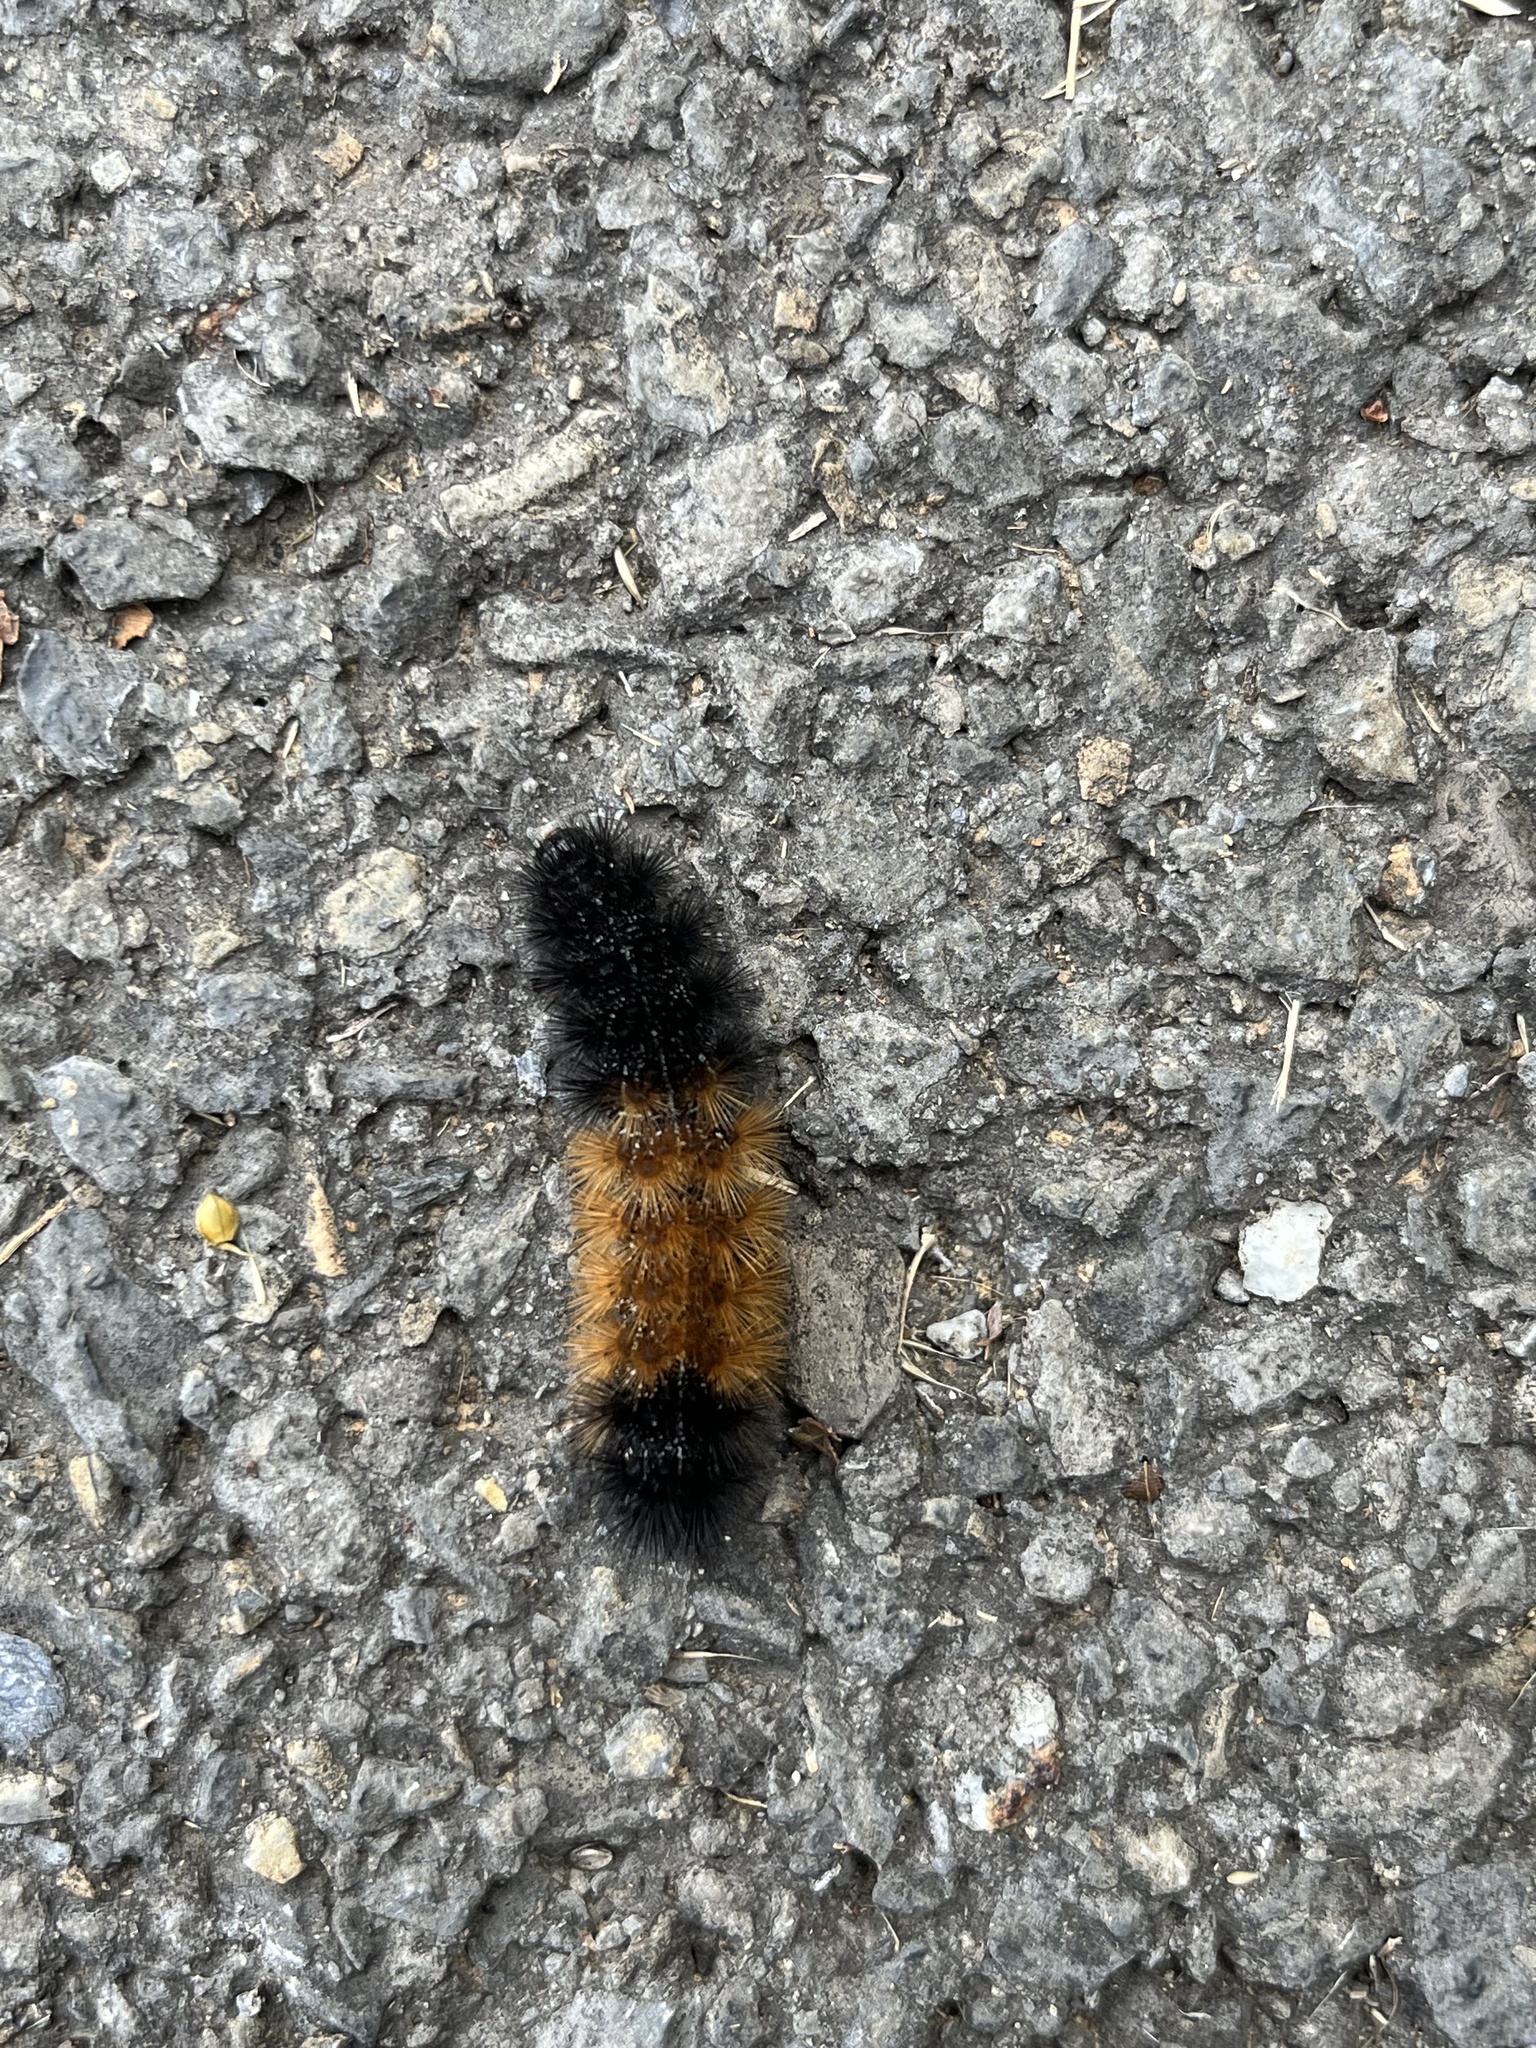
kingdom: Animalia
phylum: Arthropoda
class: Insecta
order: Lepidoptera
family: Erebidae
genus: Pyrrharctia
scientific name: Pyrrharctia isabella
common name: Isabella tiger moth
